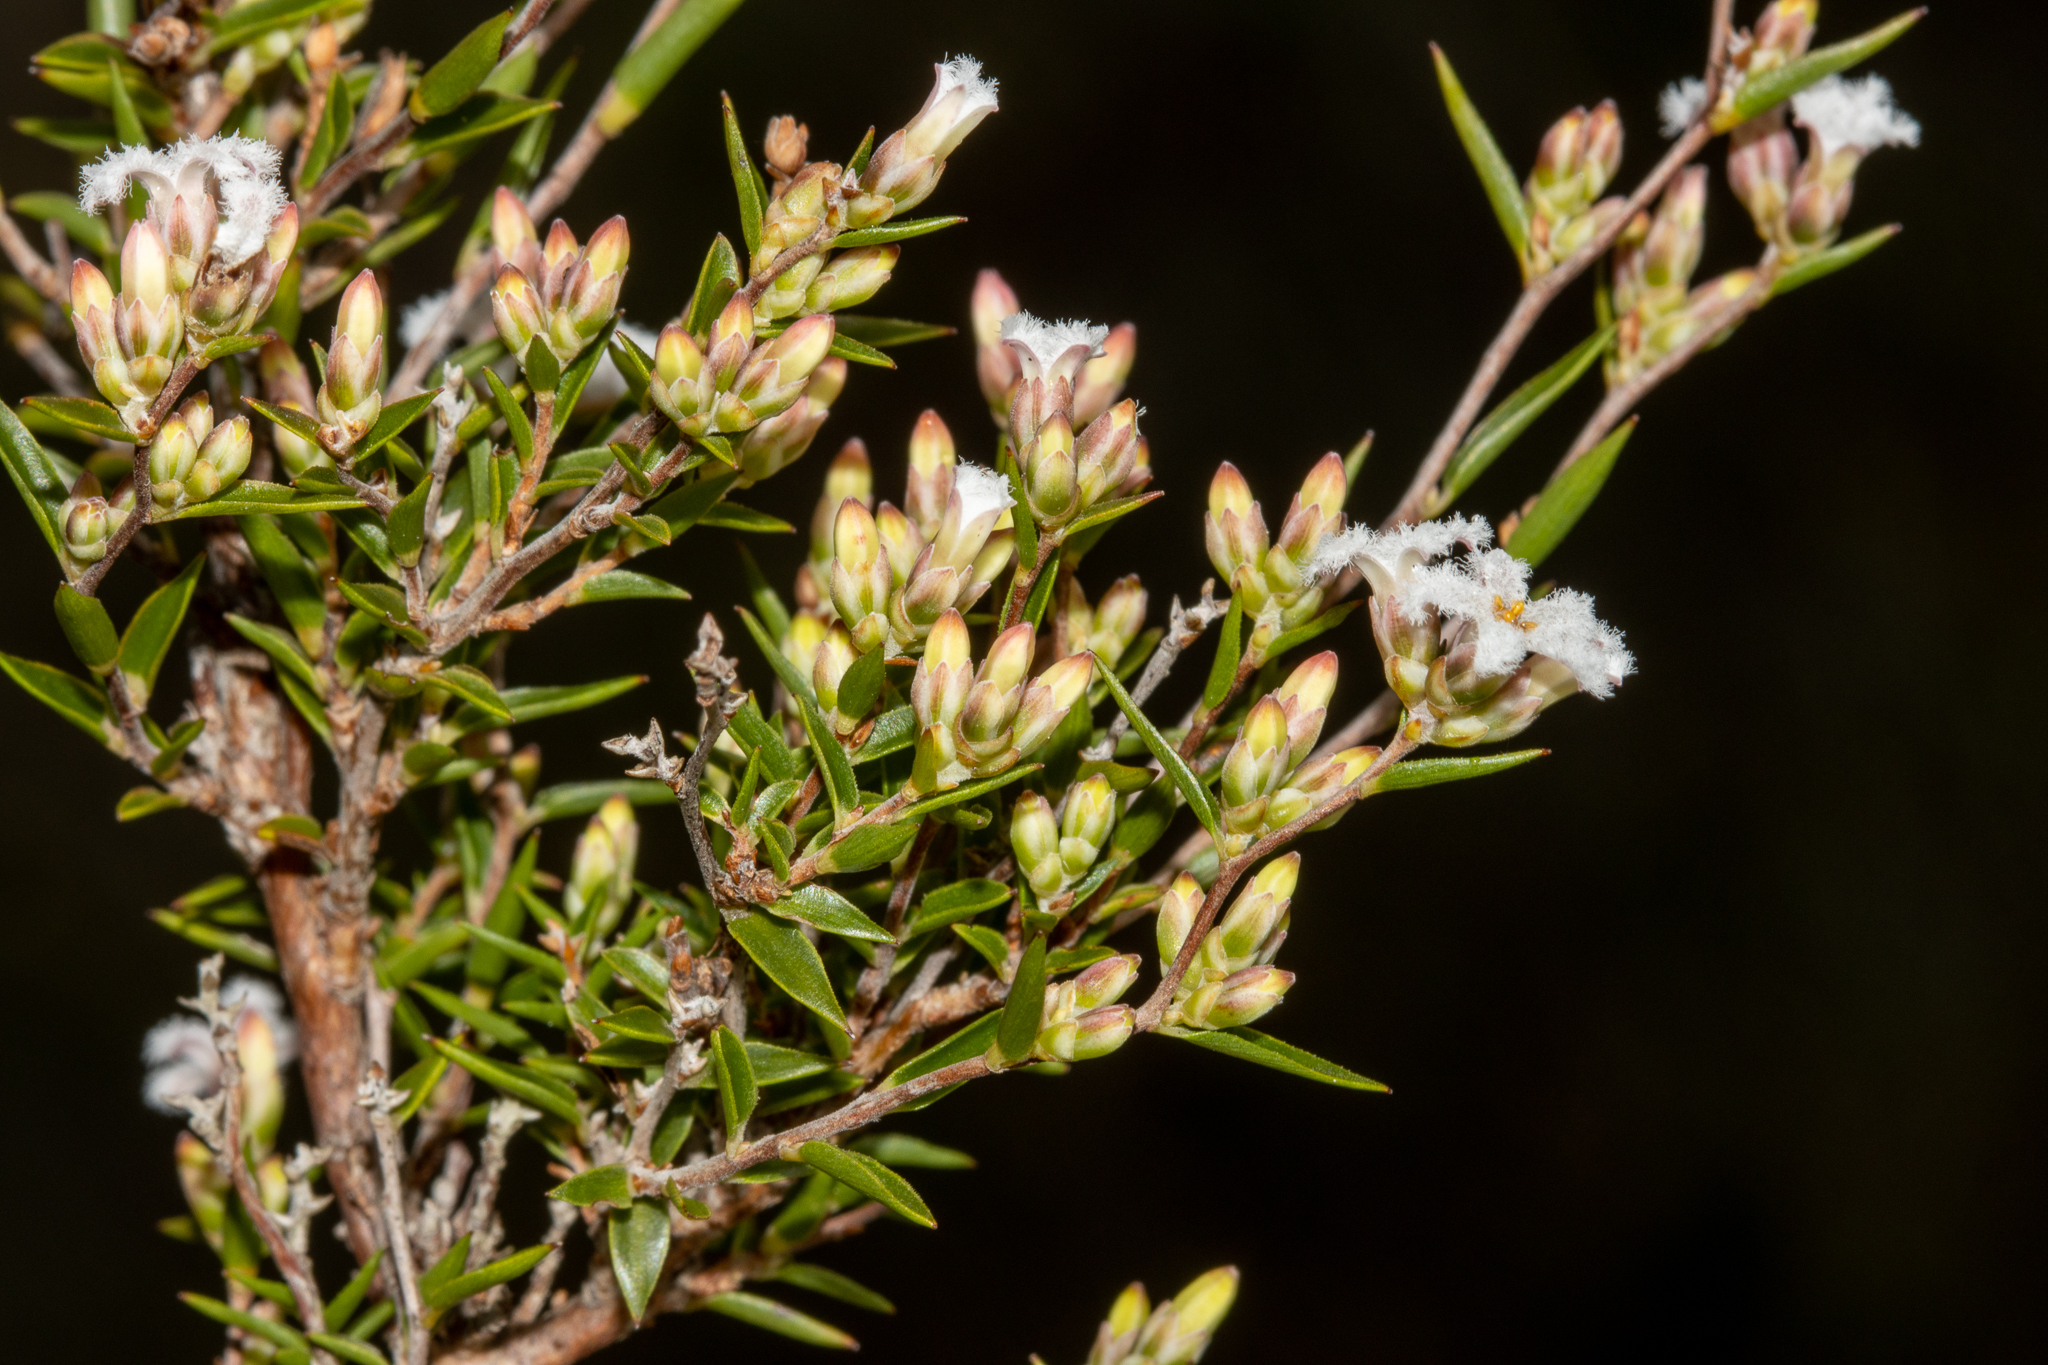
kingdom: Plantae
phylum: Tracheophyta
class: Magnoliopsida
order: Ericales
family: Ericaceae
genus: Leucopogon
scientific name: Leucopogon virgatus
